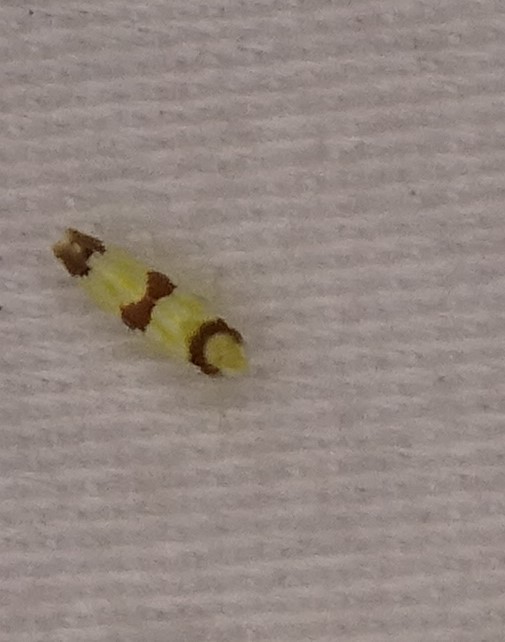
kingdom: Animalia
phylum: Arthropoda
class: Insecta
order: Hemiptera
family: Cicadellidae
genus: Erythroneura
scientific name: Erythroneura calycula
